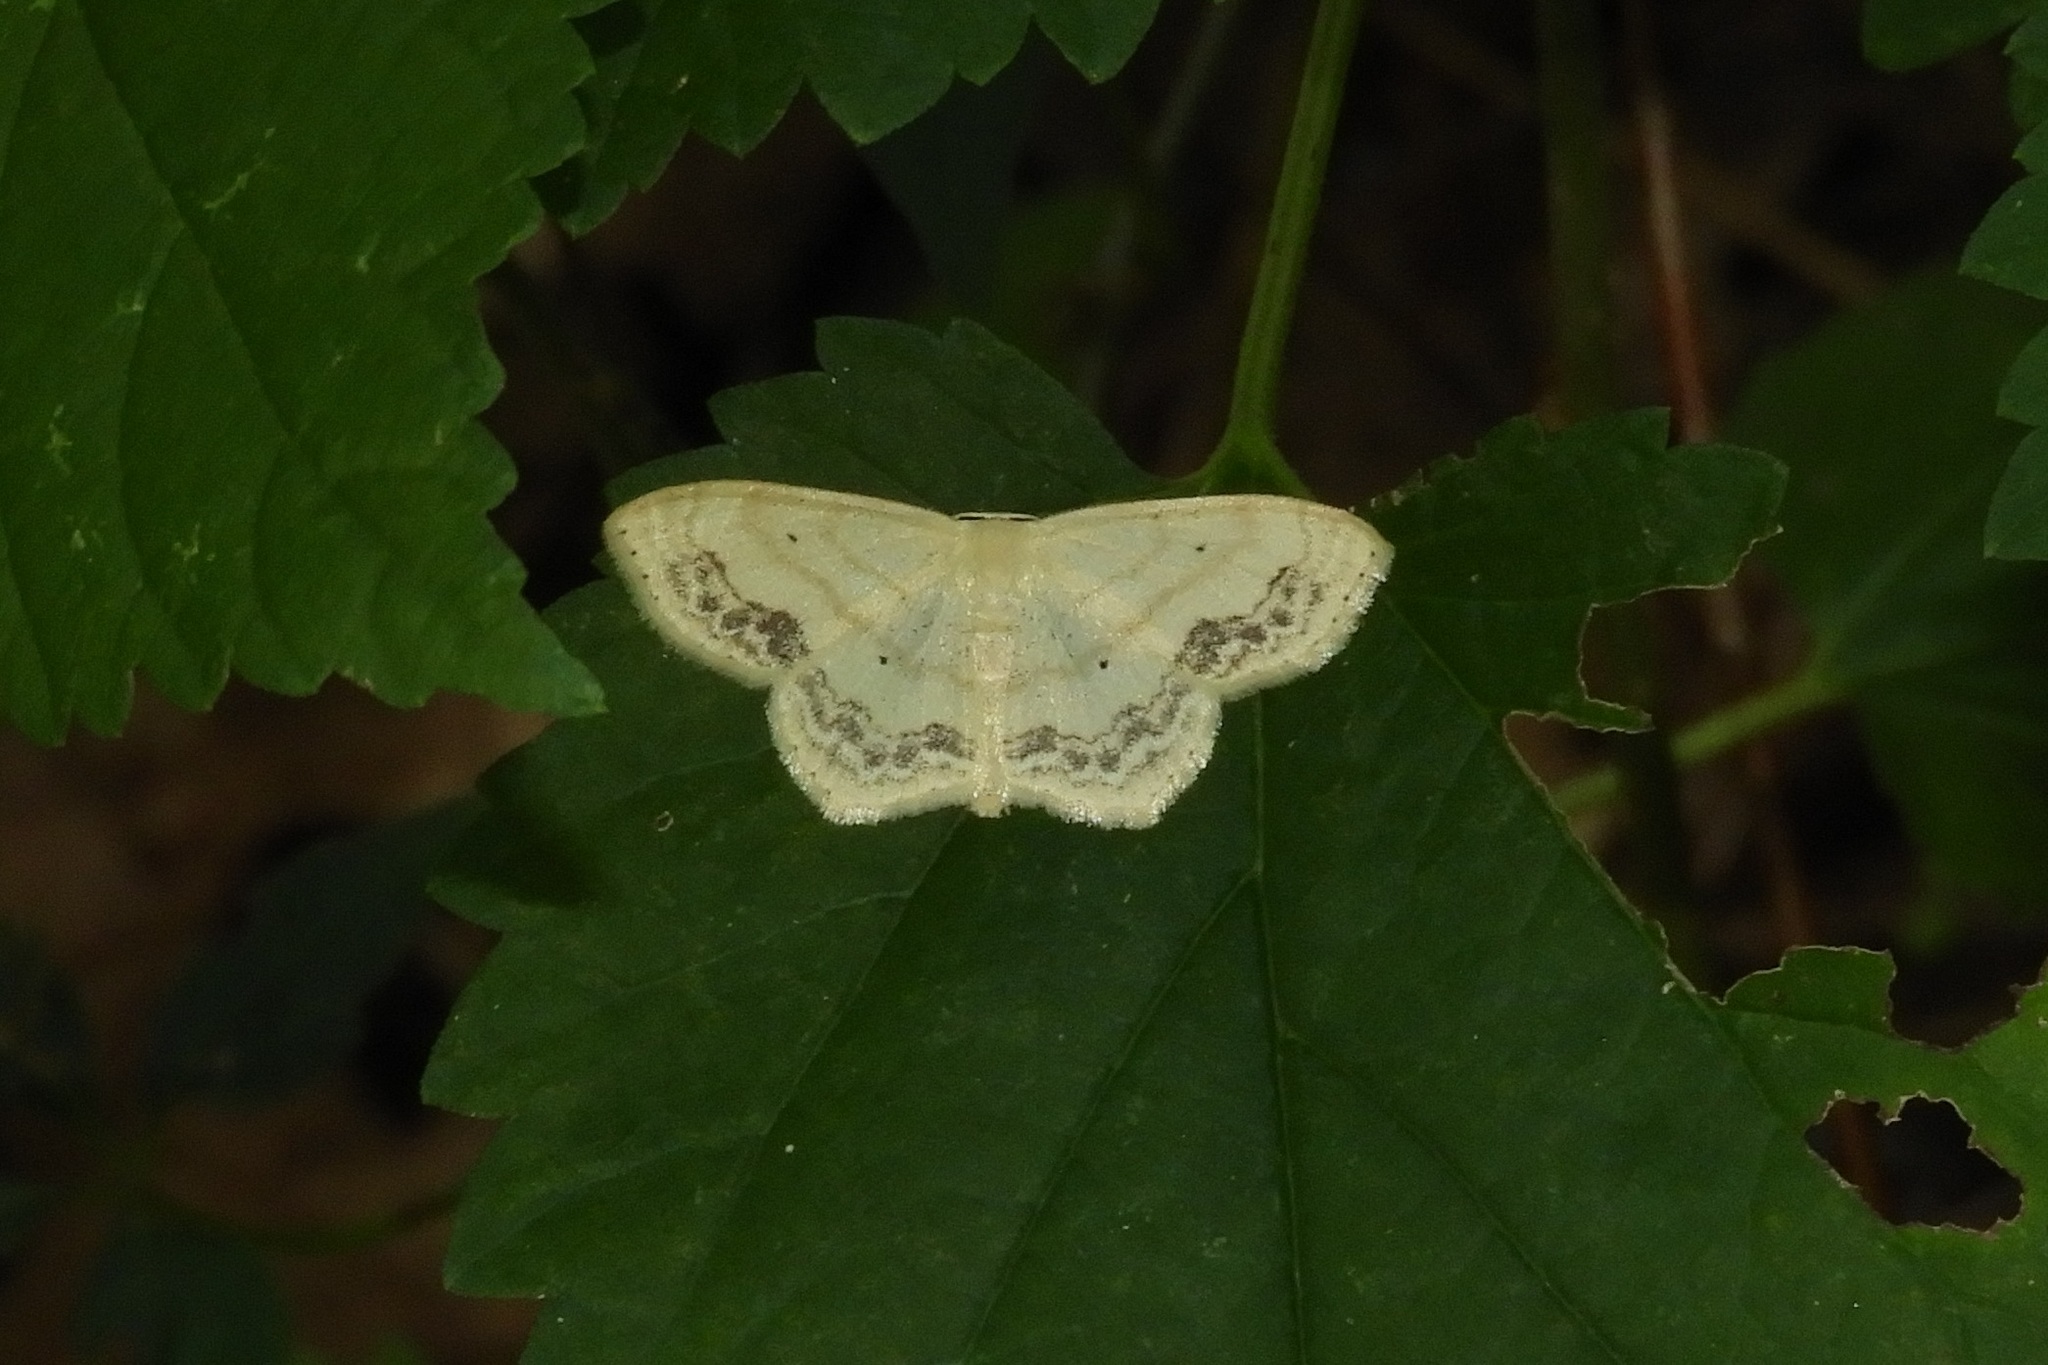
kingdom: Animalia
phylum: Arthropoda
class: Insecta
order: Lepidoptera
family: Geometridae
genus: Scopula
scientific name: Scopula limboundata
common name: Large lace border
